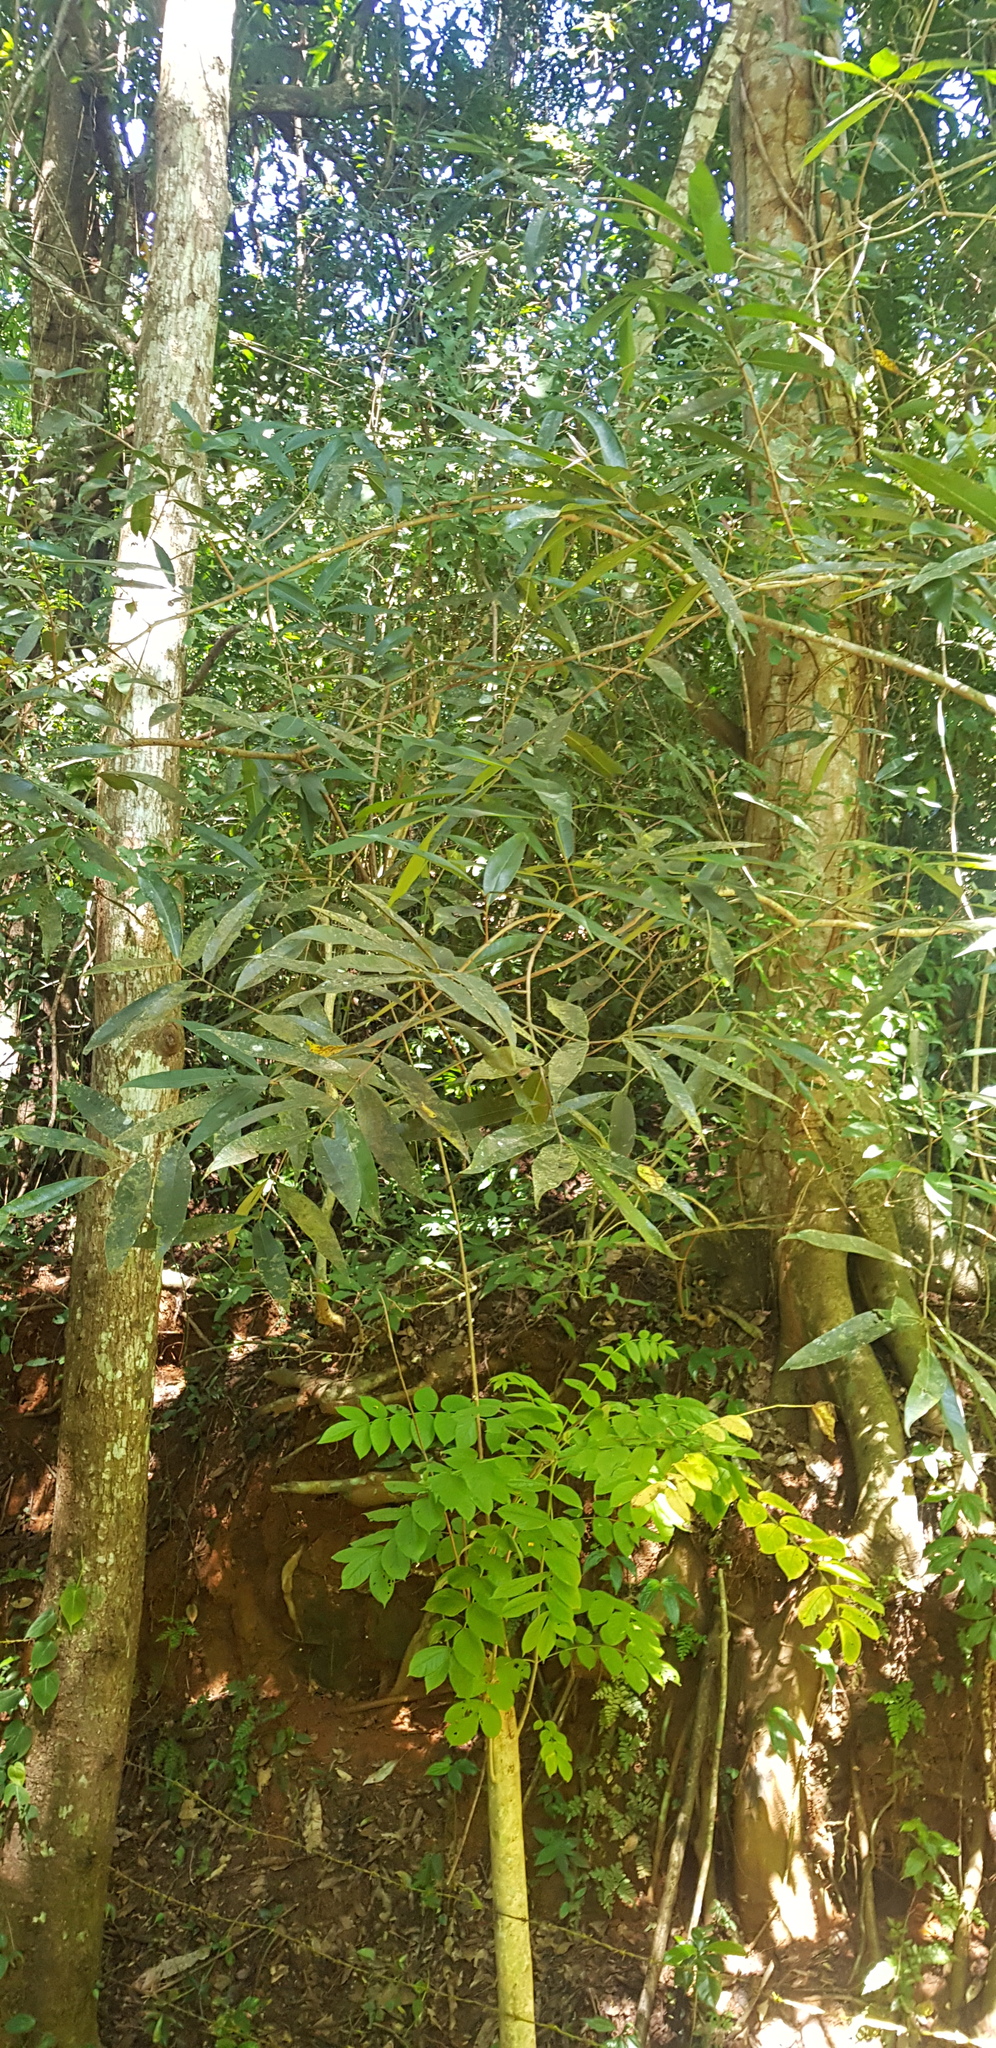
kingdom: Plantae
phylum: Tracheophyta
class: Magnoliopsida
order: Myrtales
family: Myrtaceae
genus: Syzygium
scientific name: Syzygium jambos
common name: Malabar plum
